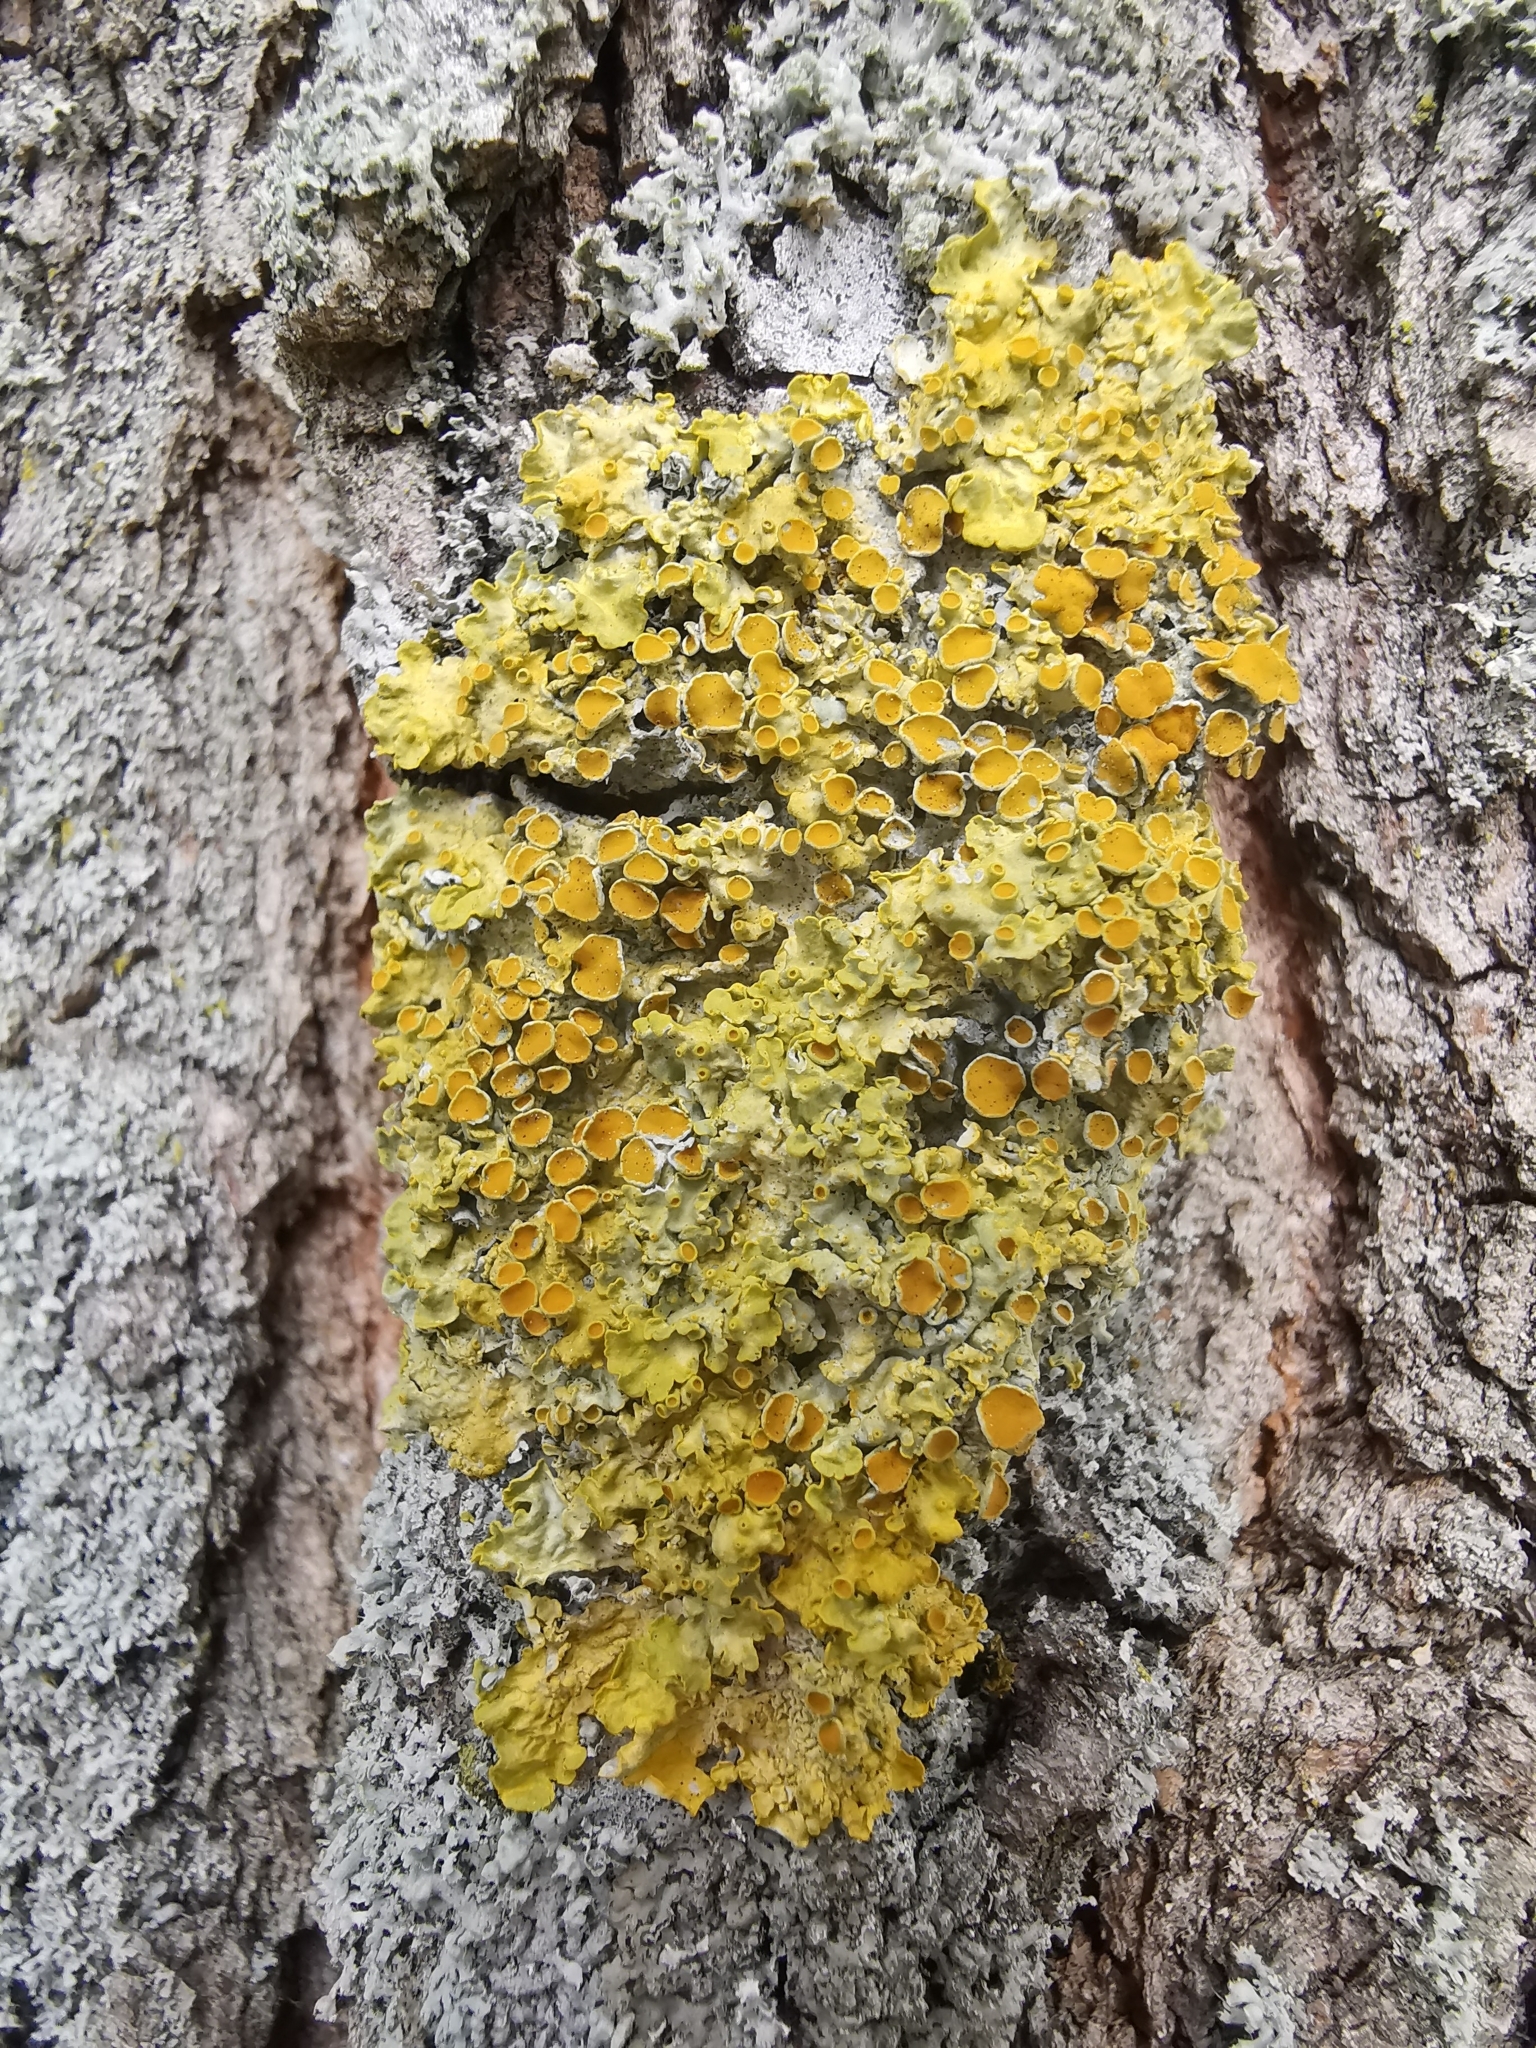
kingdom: Fungi
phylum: Ascomycota
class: Lecanoromycetes
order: Teloschistales
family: Teloschistaceae
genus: Xanthoria
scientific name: Xanthoria parietina
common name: Common orange lichen
